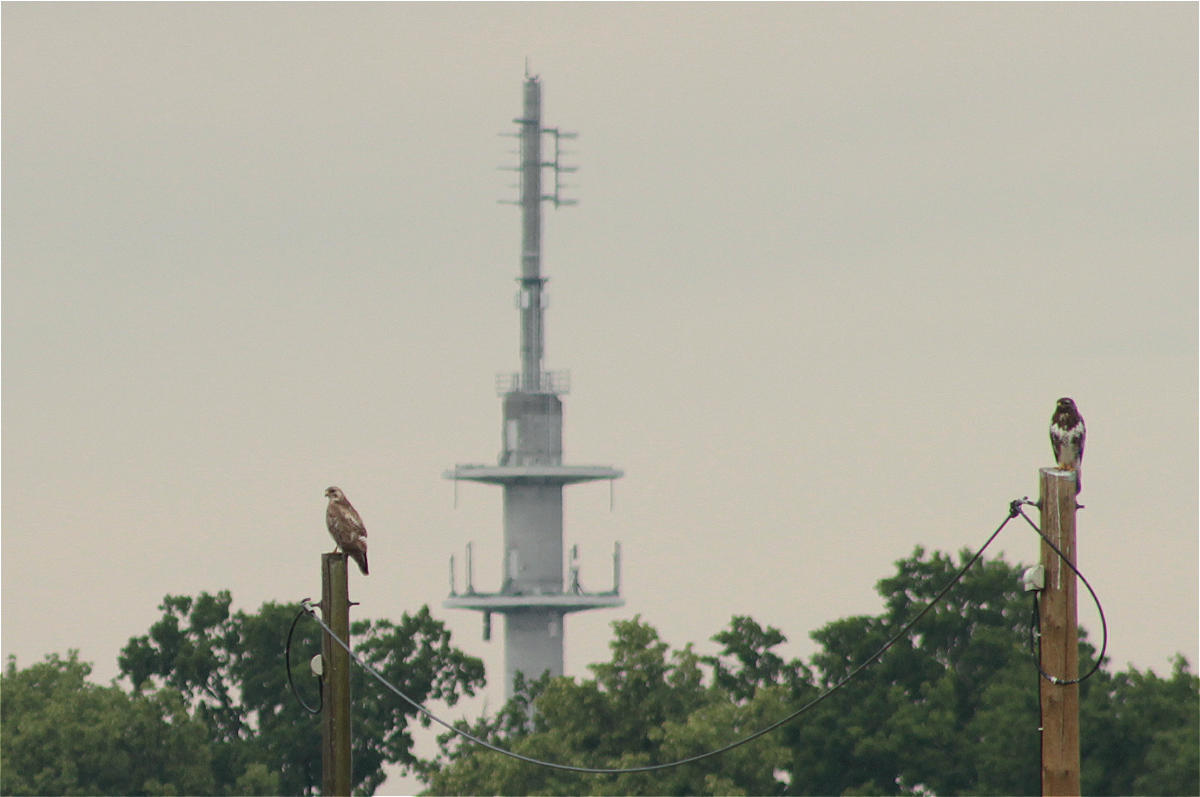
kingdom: Animalia
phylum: Chordata
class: Aves
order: Accipitriformes
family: Accipitridae
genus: Buteo
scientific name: Buteo buteo
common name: Common buzzard
